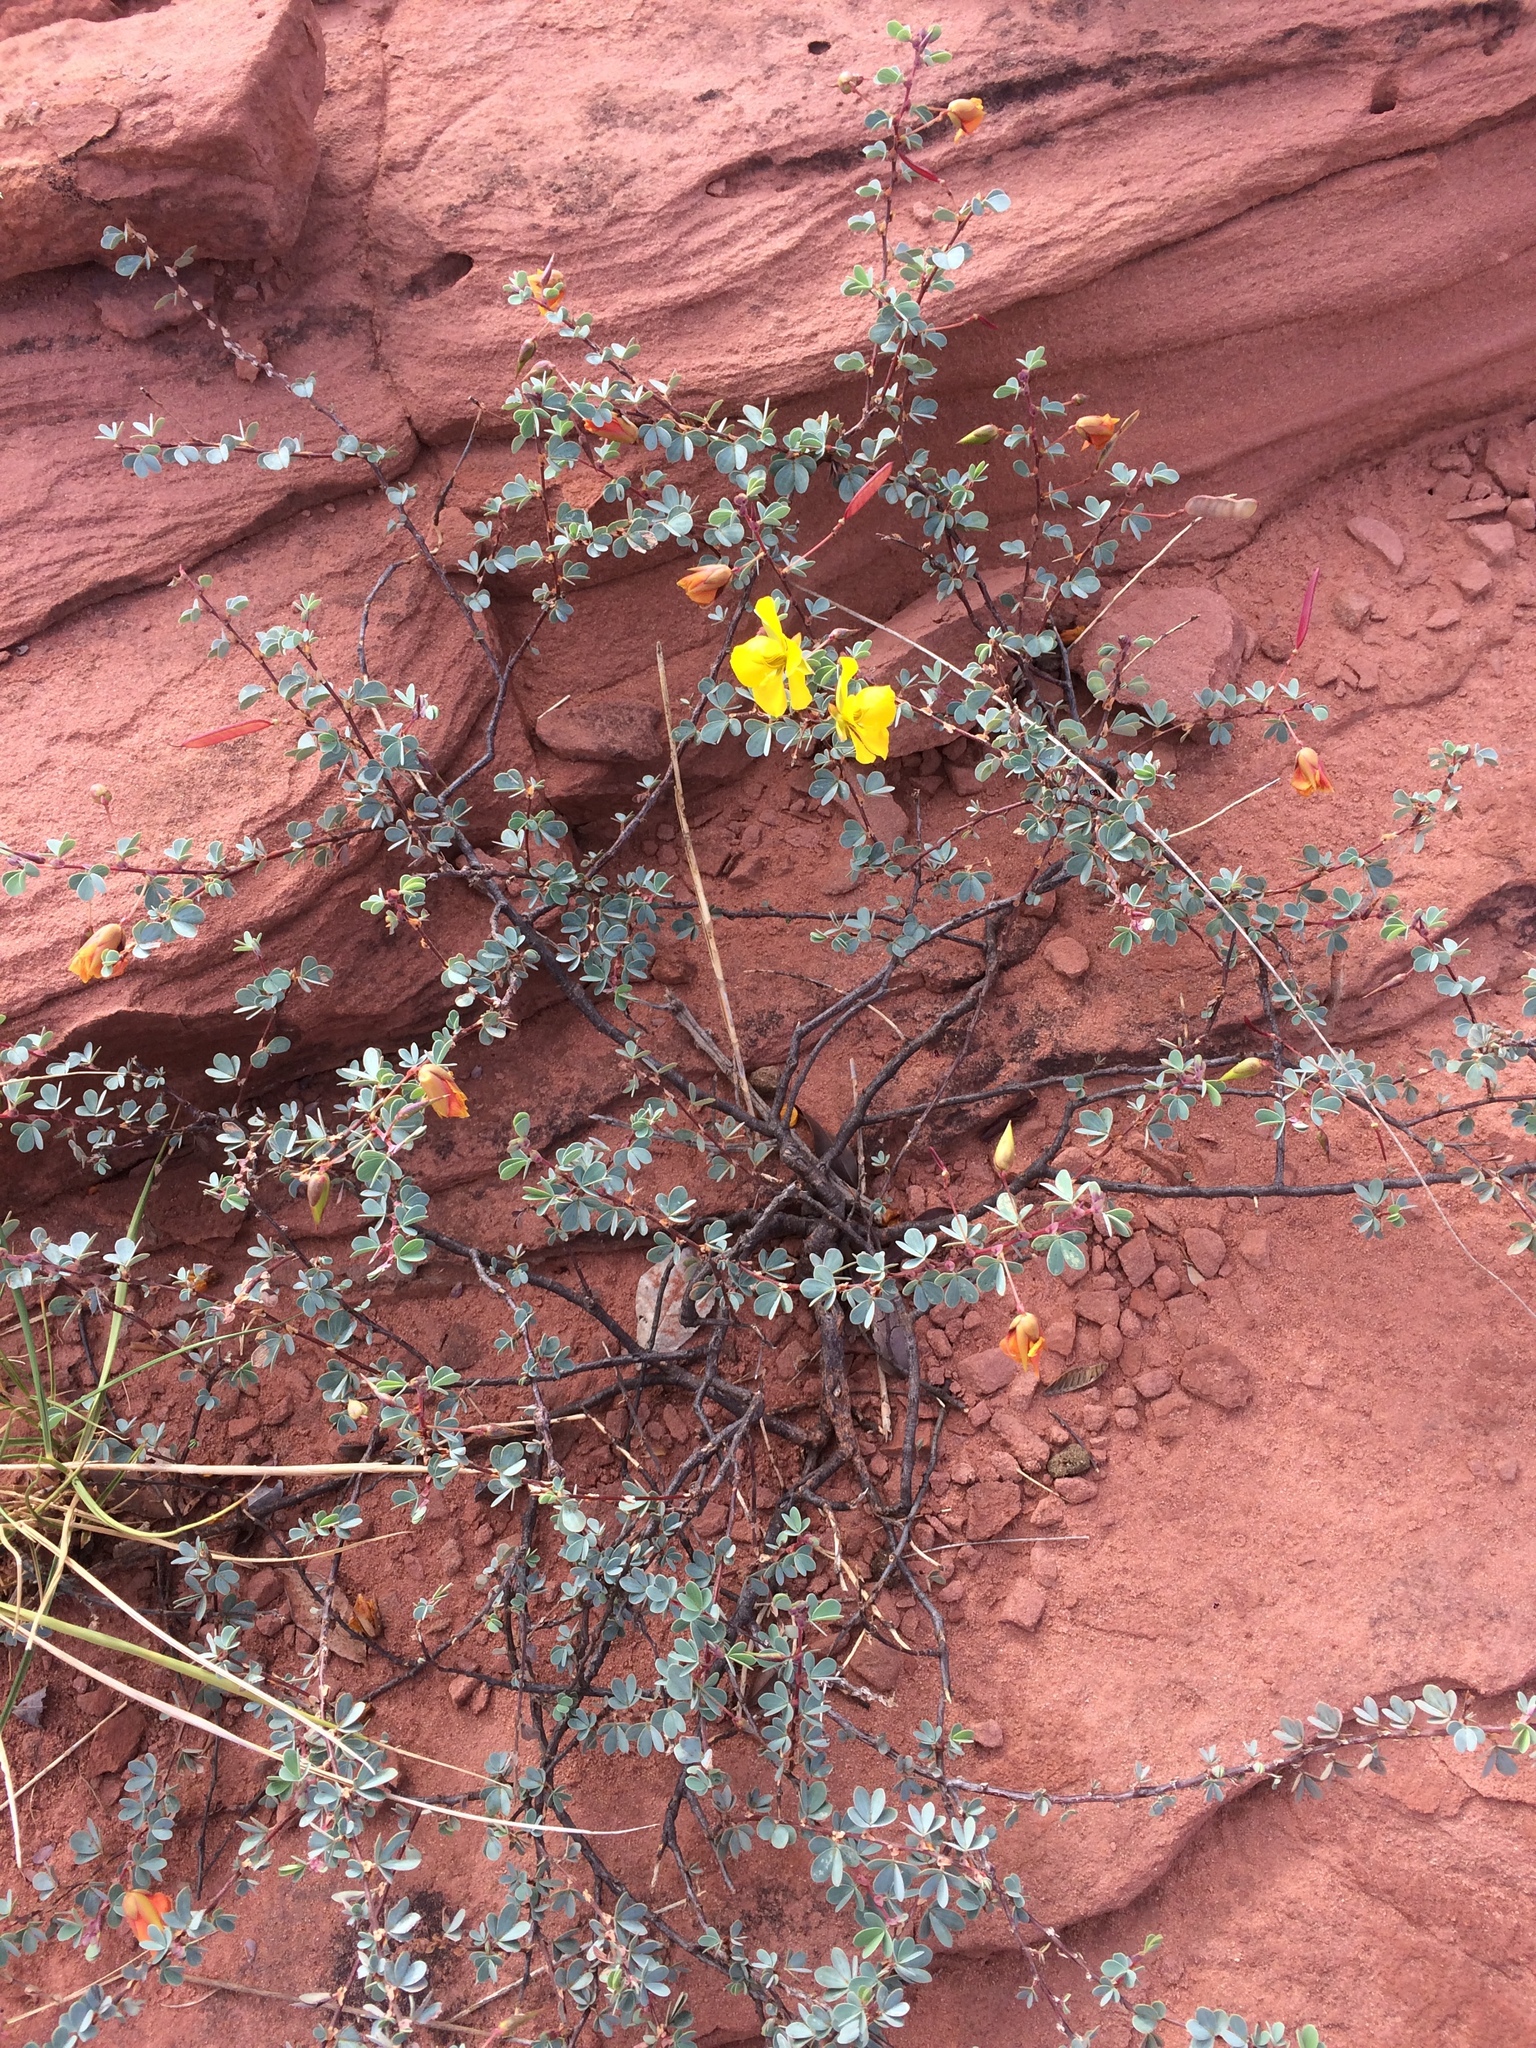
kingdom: Plantae
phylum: Tracheophyta
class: Magnoliopsida
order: Fabales
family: Fabaceae
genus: Chamaecrista
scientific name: Chamaecrista ramosa
